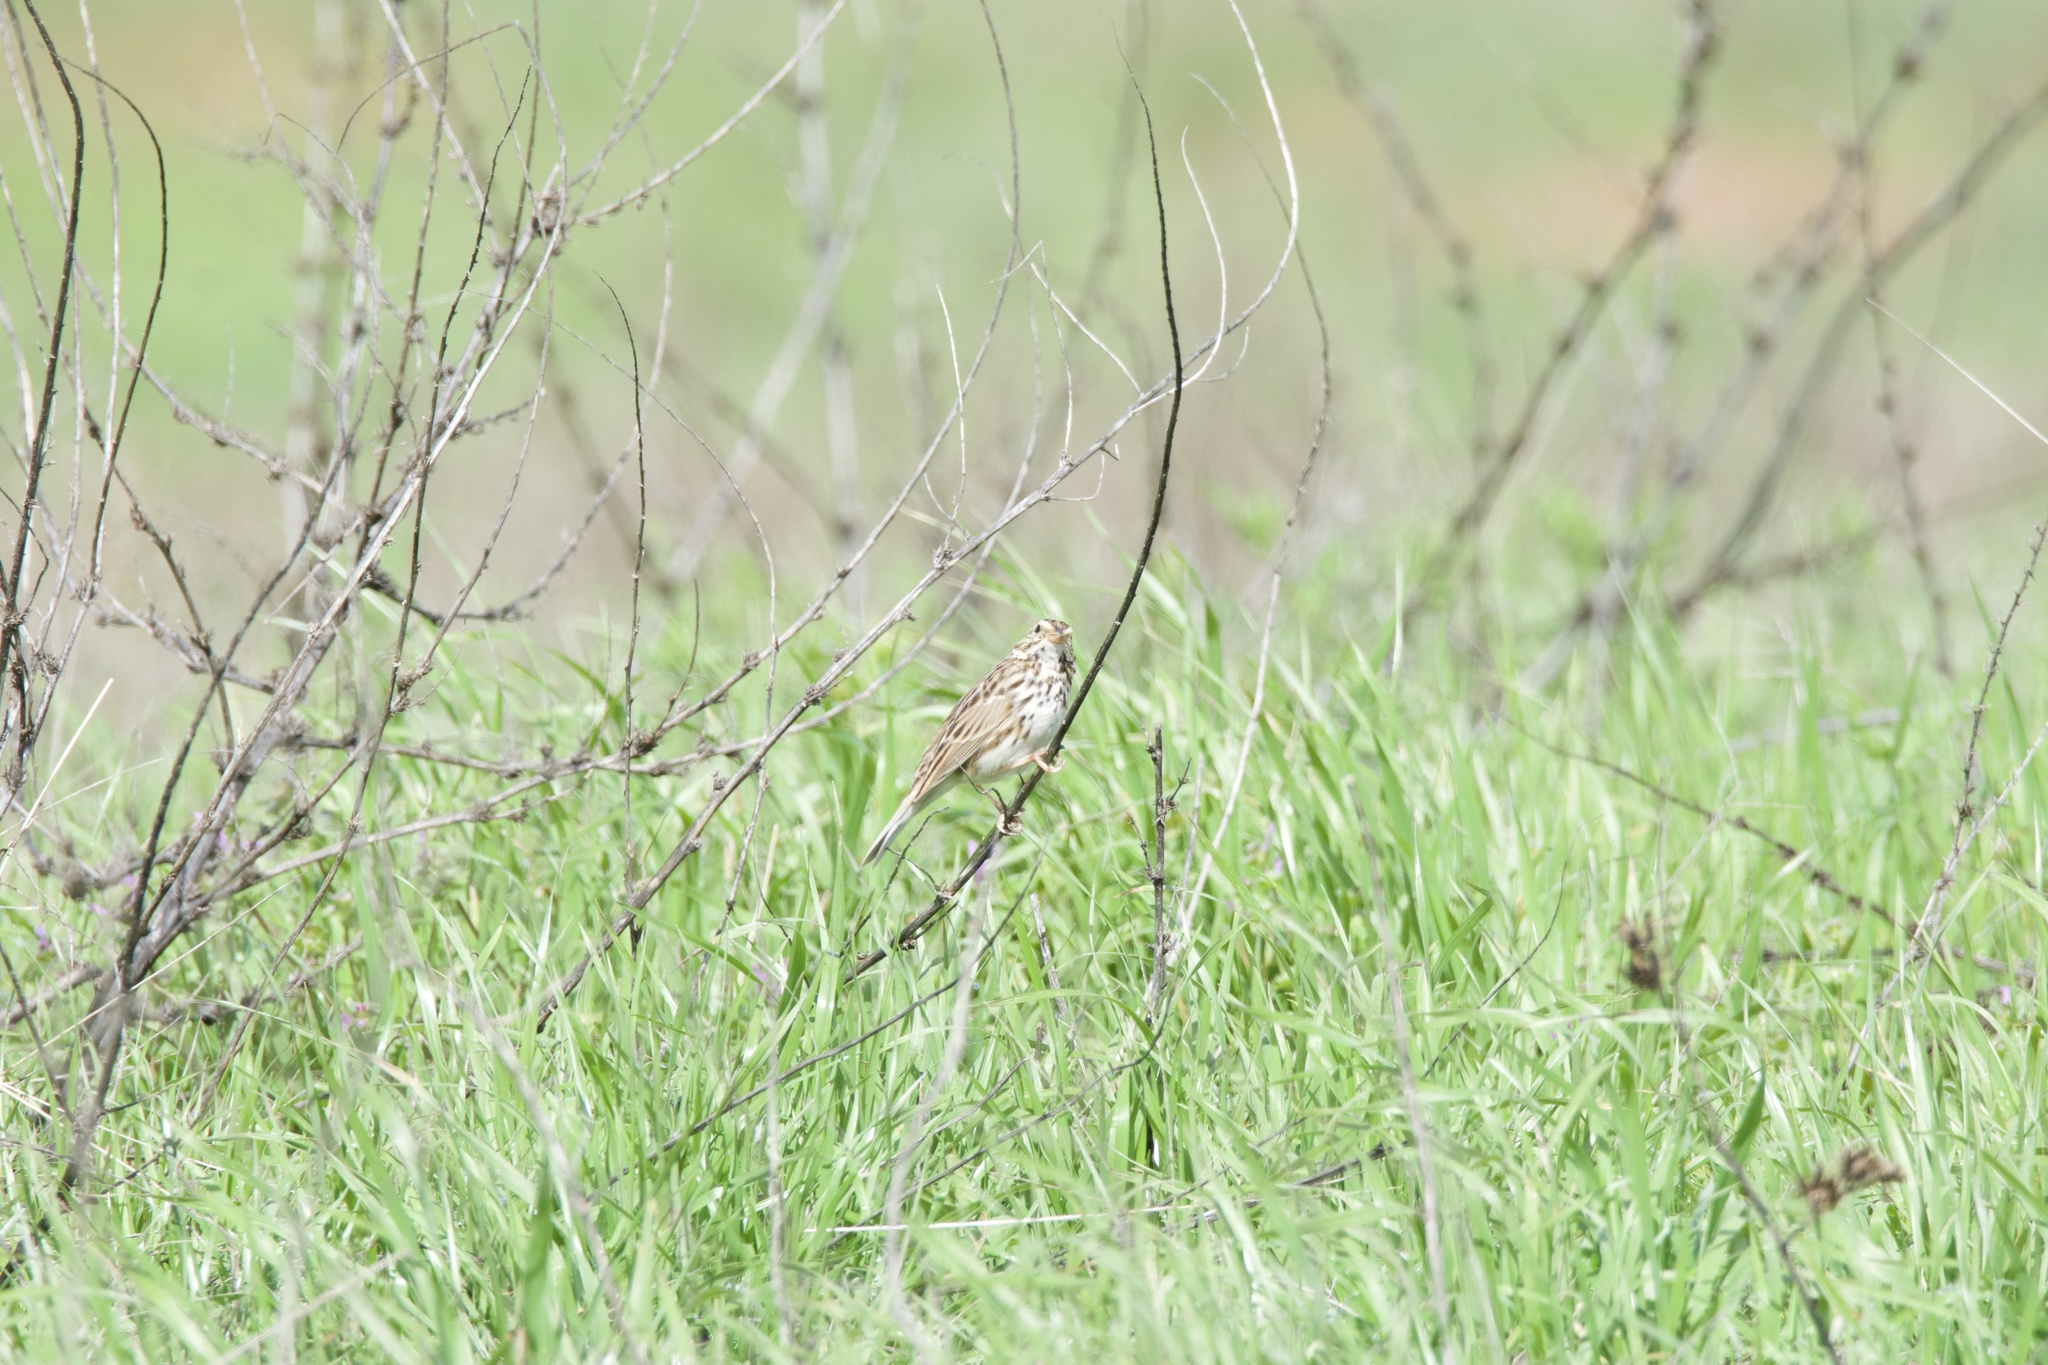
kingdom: Animalia
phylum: Chordata
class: Aves
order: Passeriformes
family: Passerellidae
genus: Passerculus
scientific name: Passerculus sandwichensis
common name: Savannah sparrow
